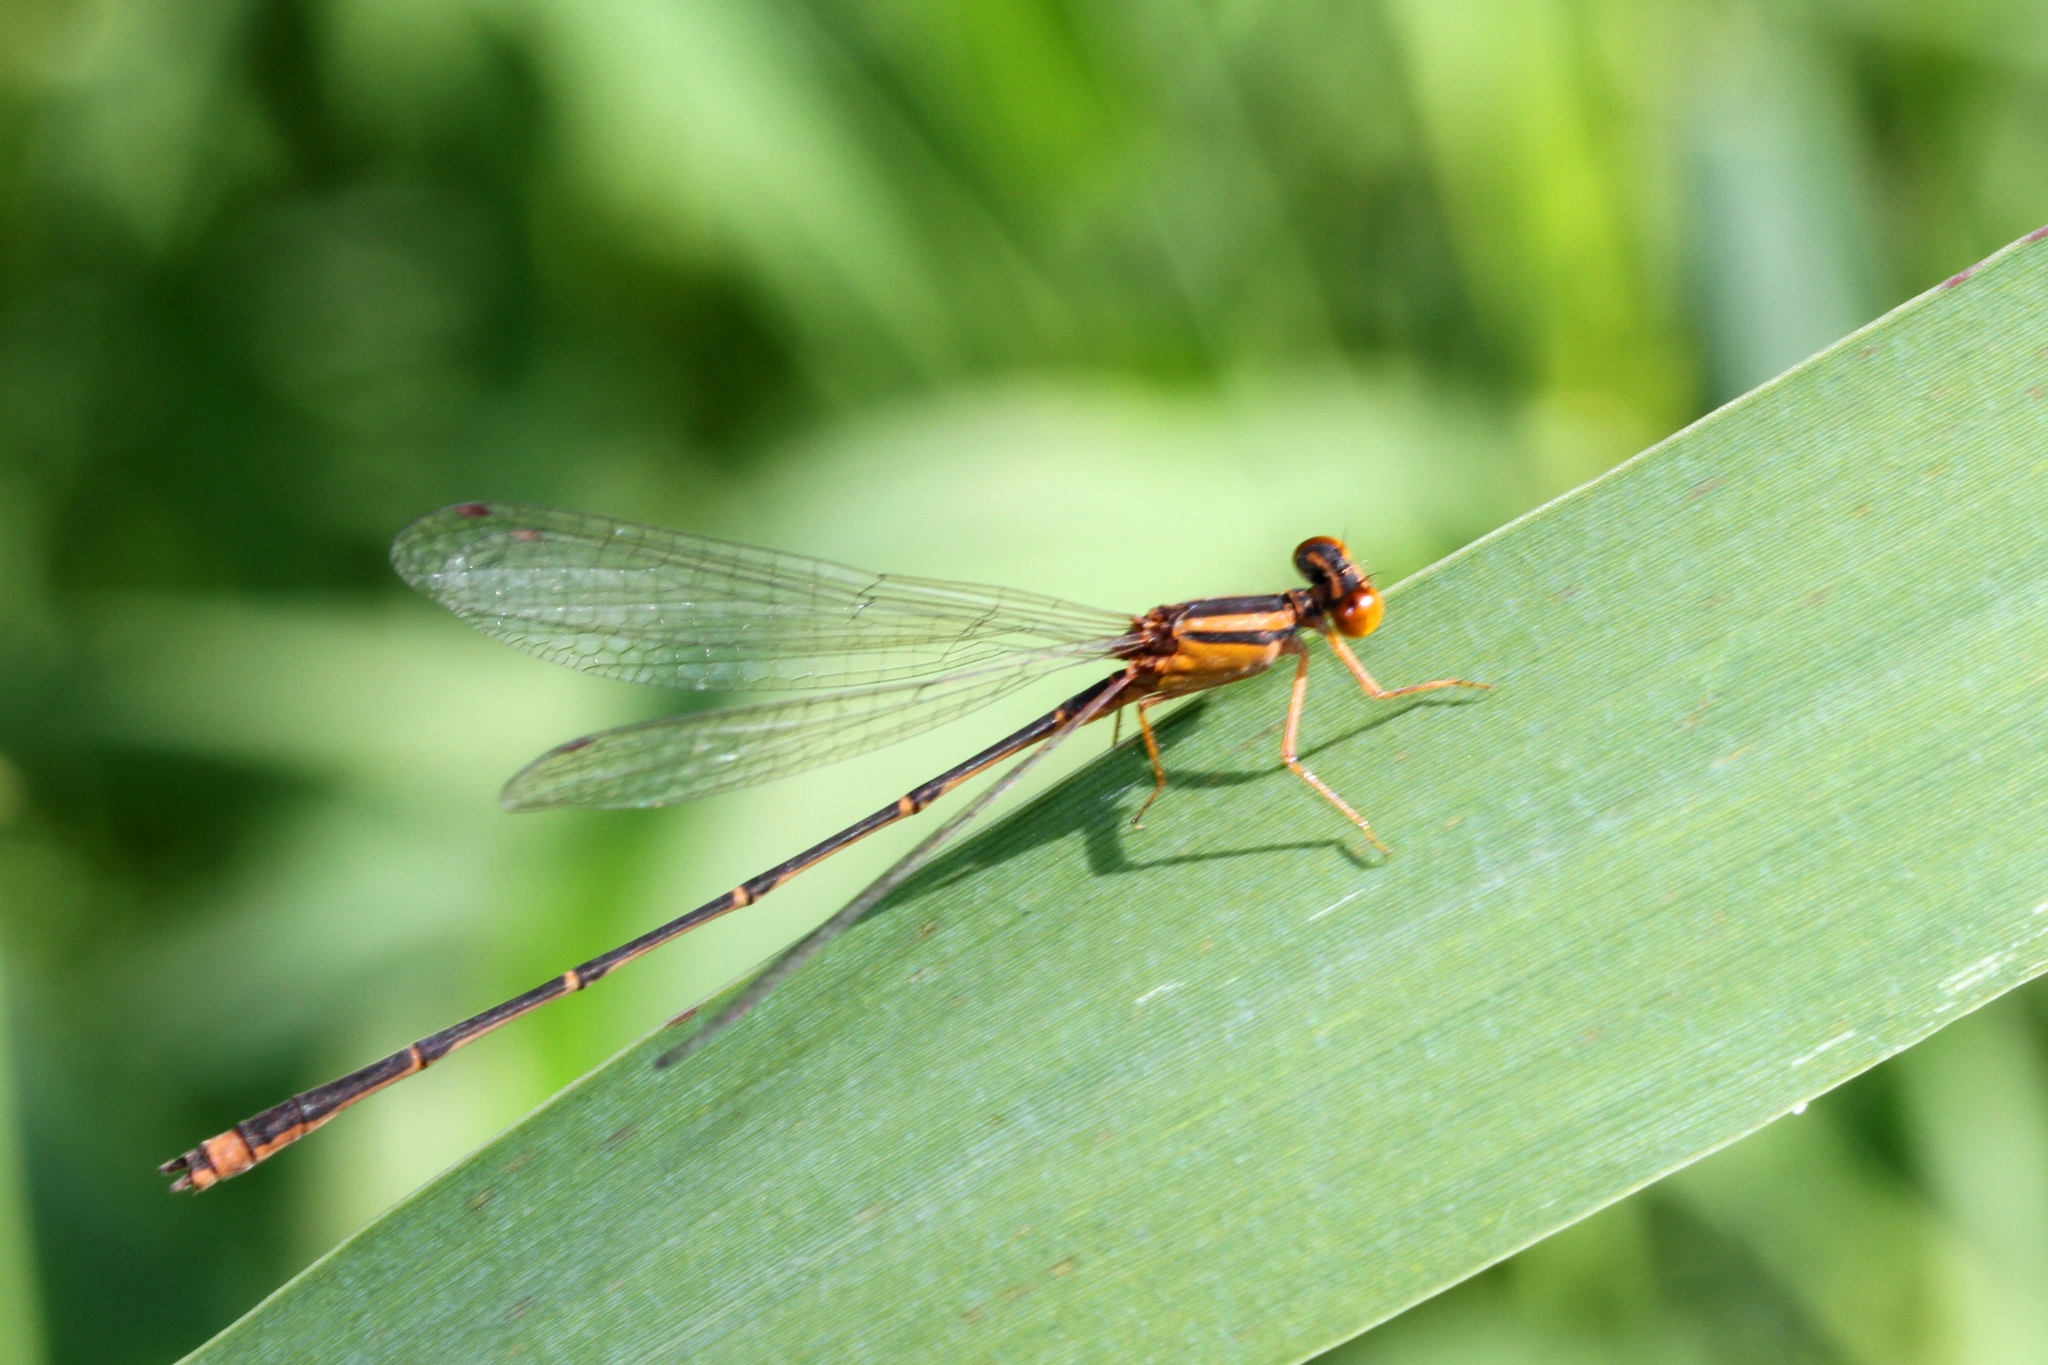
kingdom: Animalia
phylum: Arthropoda
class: Insecta
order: Odonata
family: Coenagrionidae
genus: Enallagma
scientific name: Enallagma signatum
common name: Orange bluet
